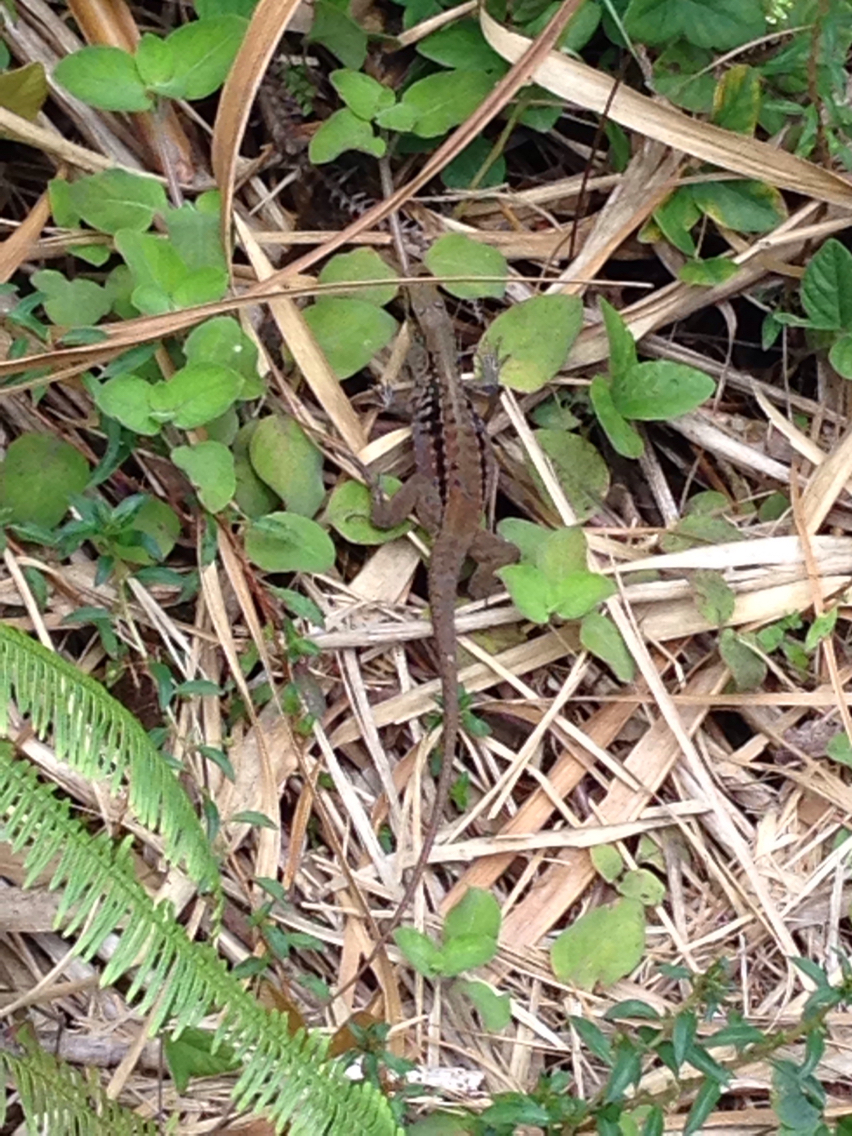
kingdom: Animalia
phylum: Chordata
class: Squamata
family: Teiidae
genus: Holcosus
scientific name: Holcosus festivus
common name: Middle american ameiva
